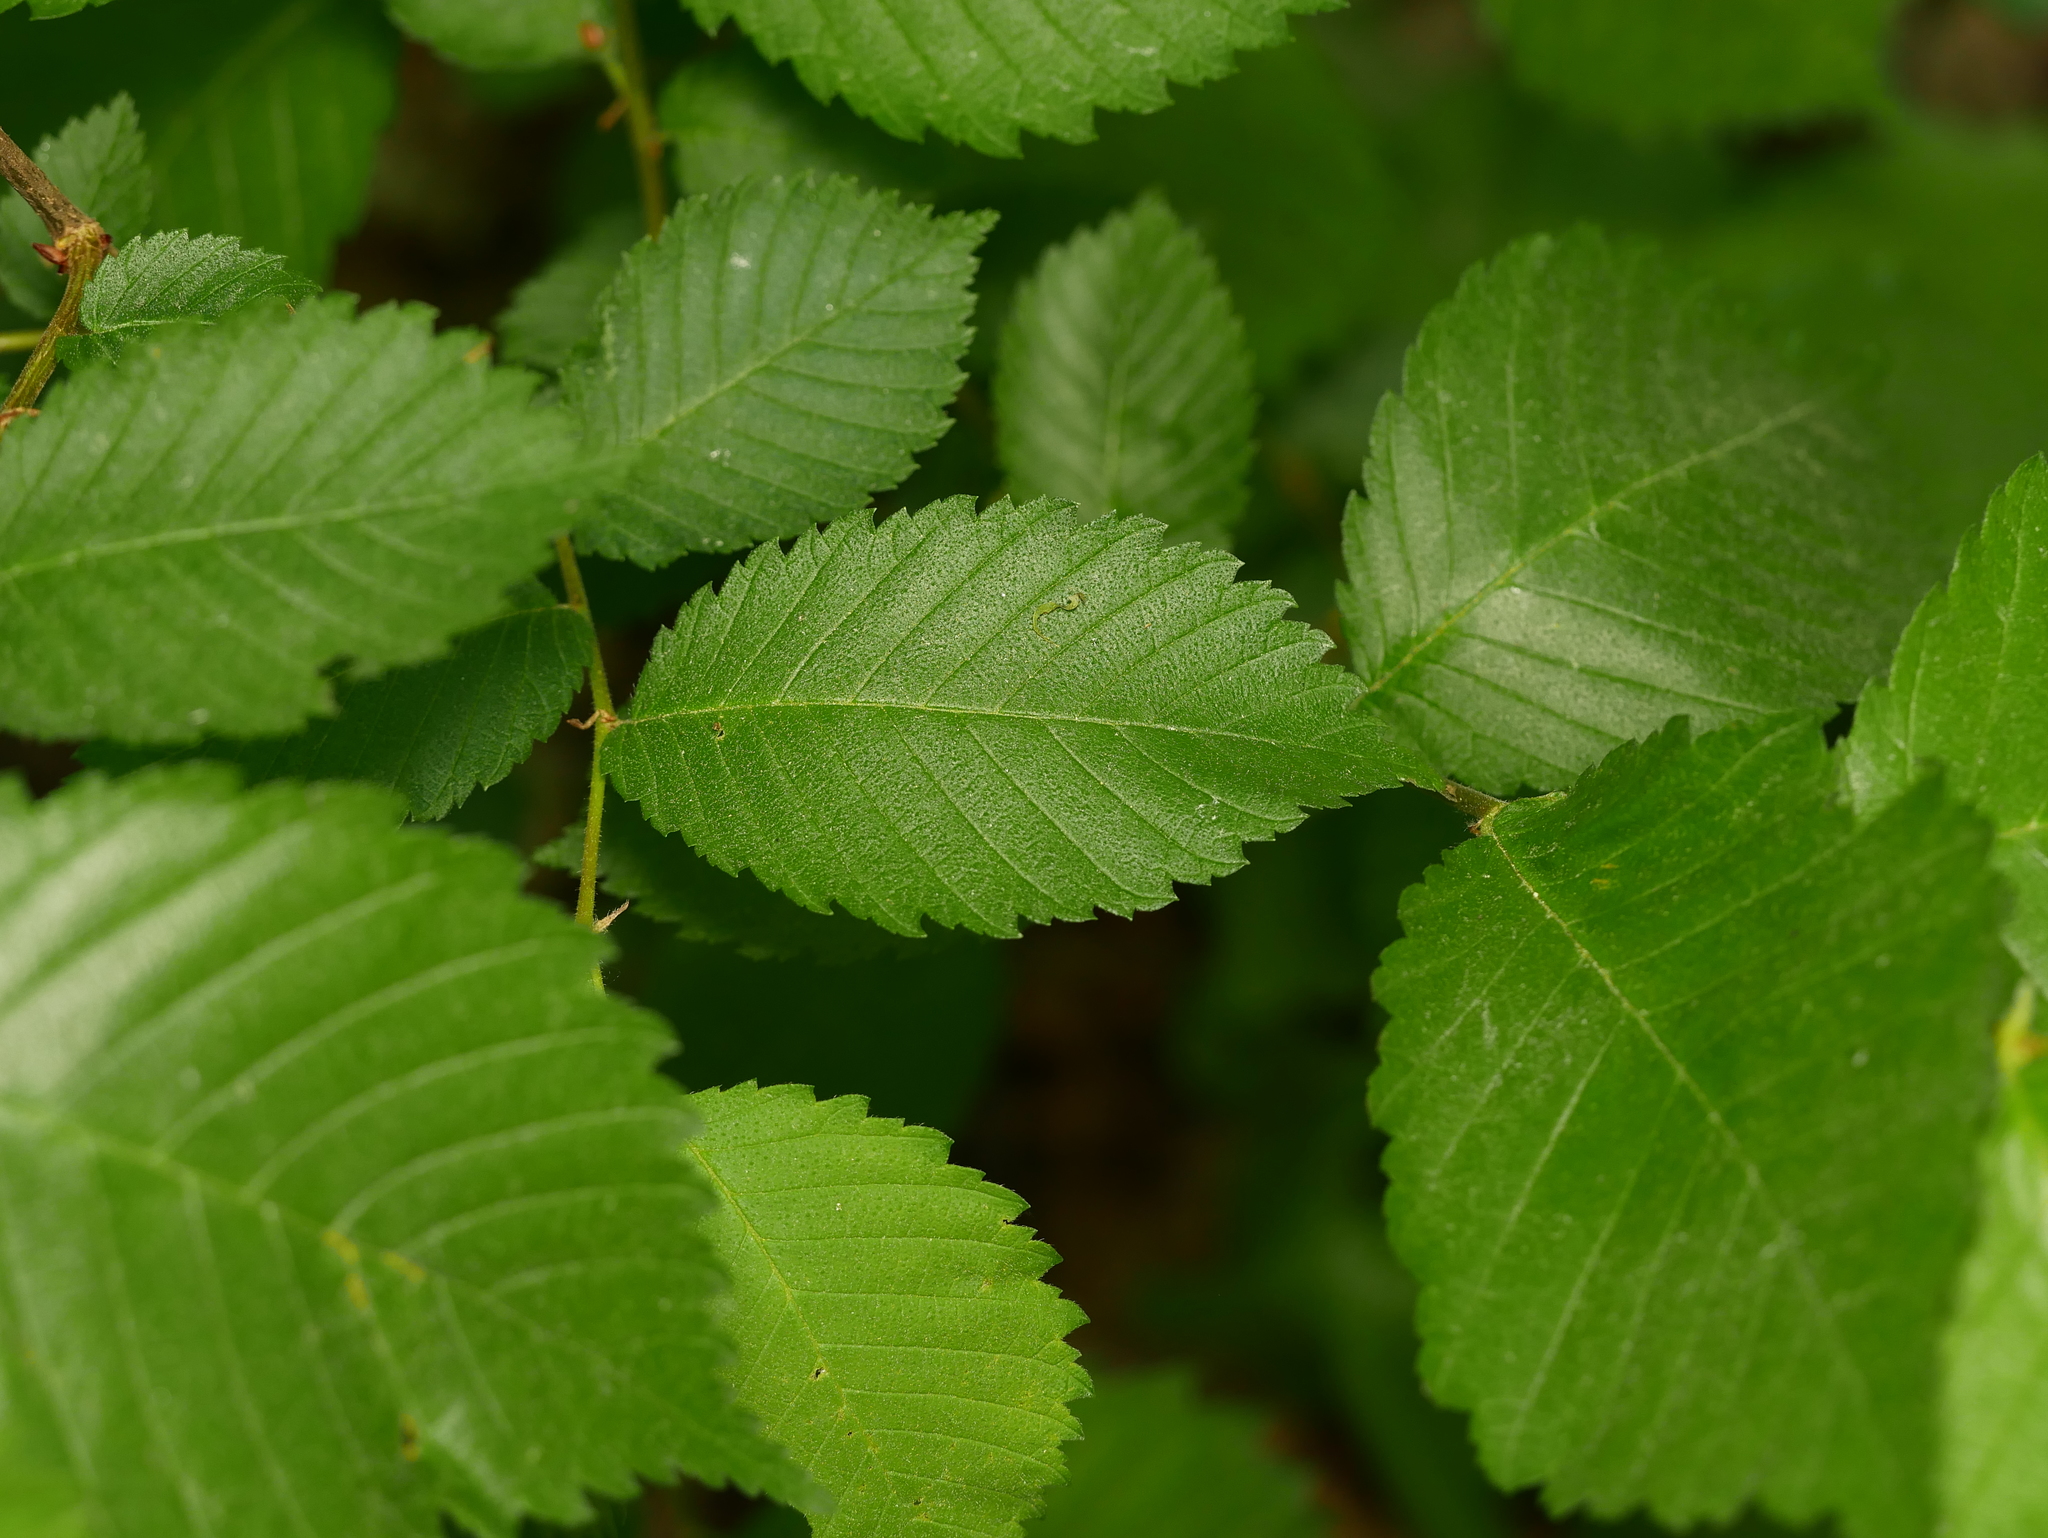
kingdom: Plantae
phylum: Tracheophyta
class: Magnoliopsida
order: Rosales
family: Ulmaceae
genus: Ulmus
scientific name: Ulmus minor
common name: Small-leaved elm
